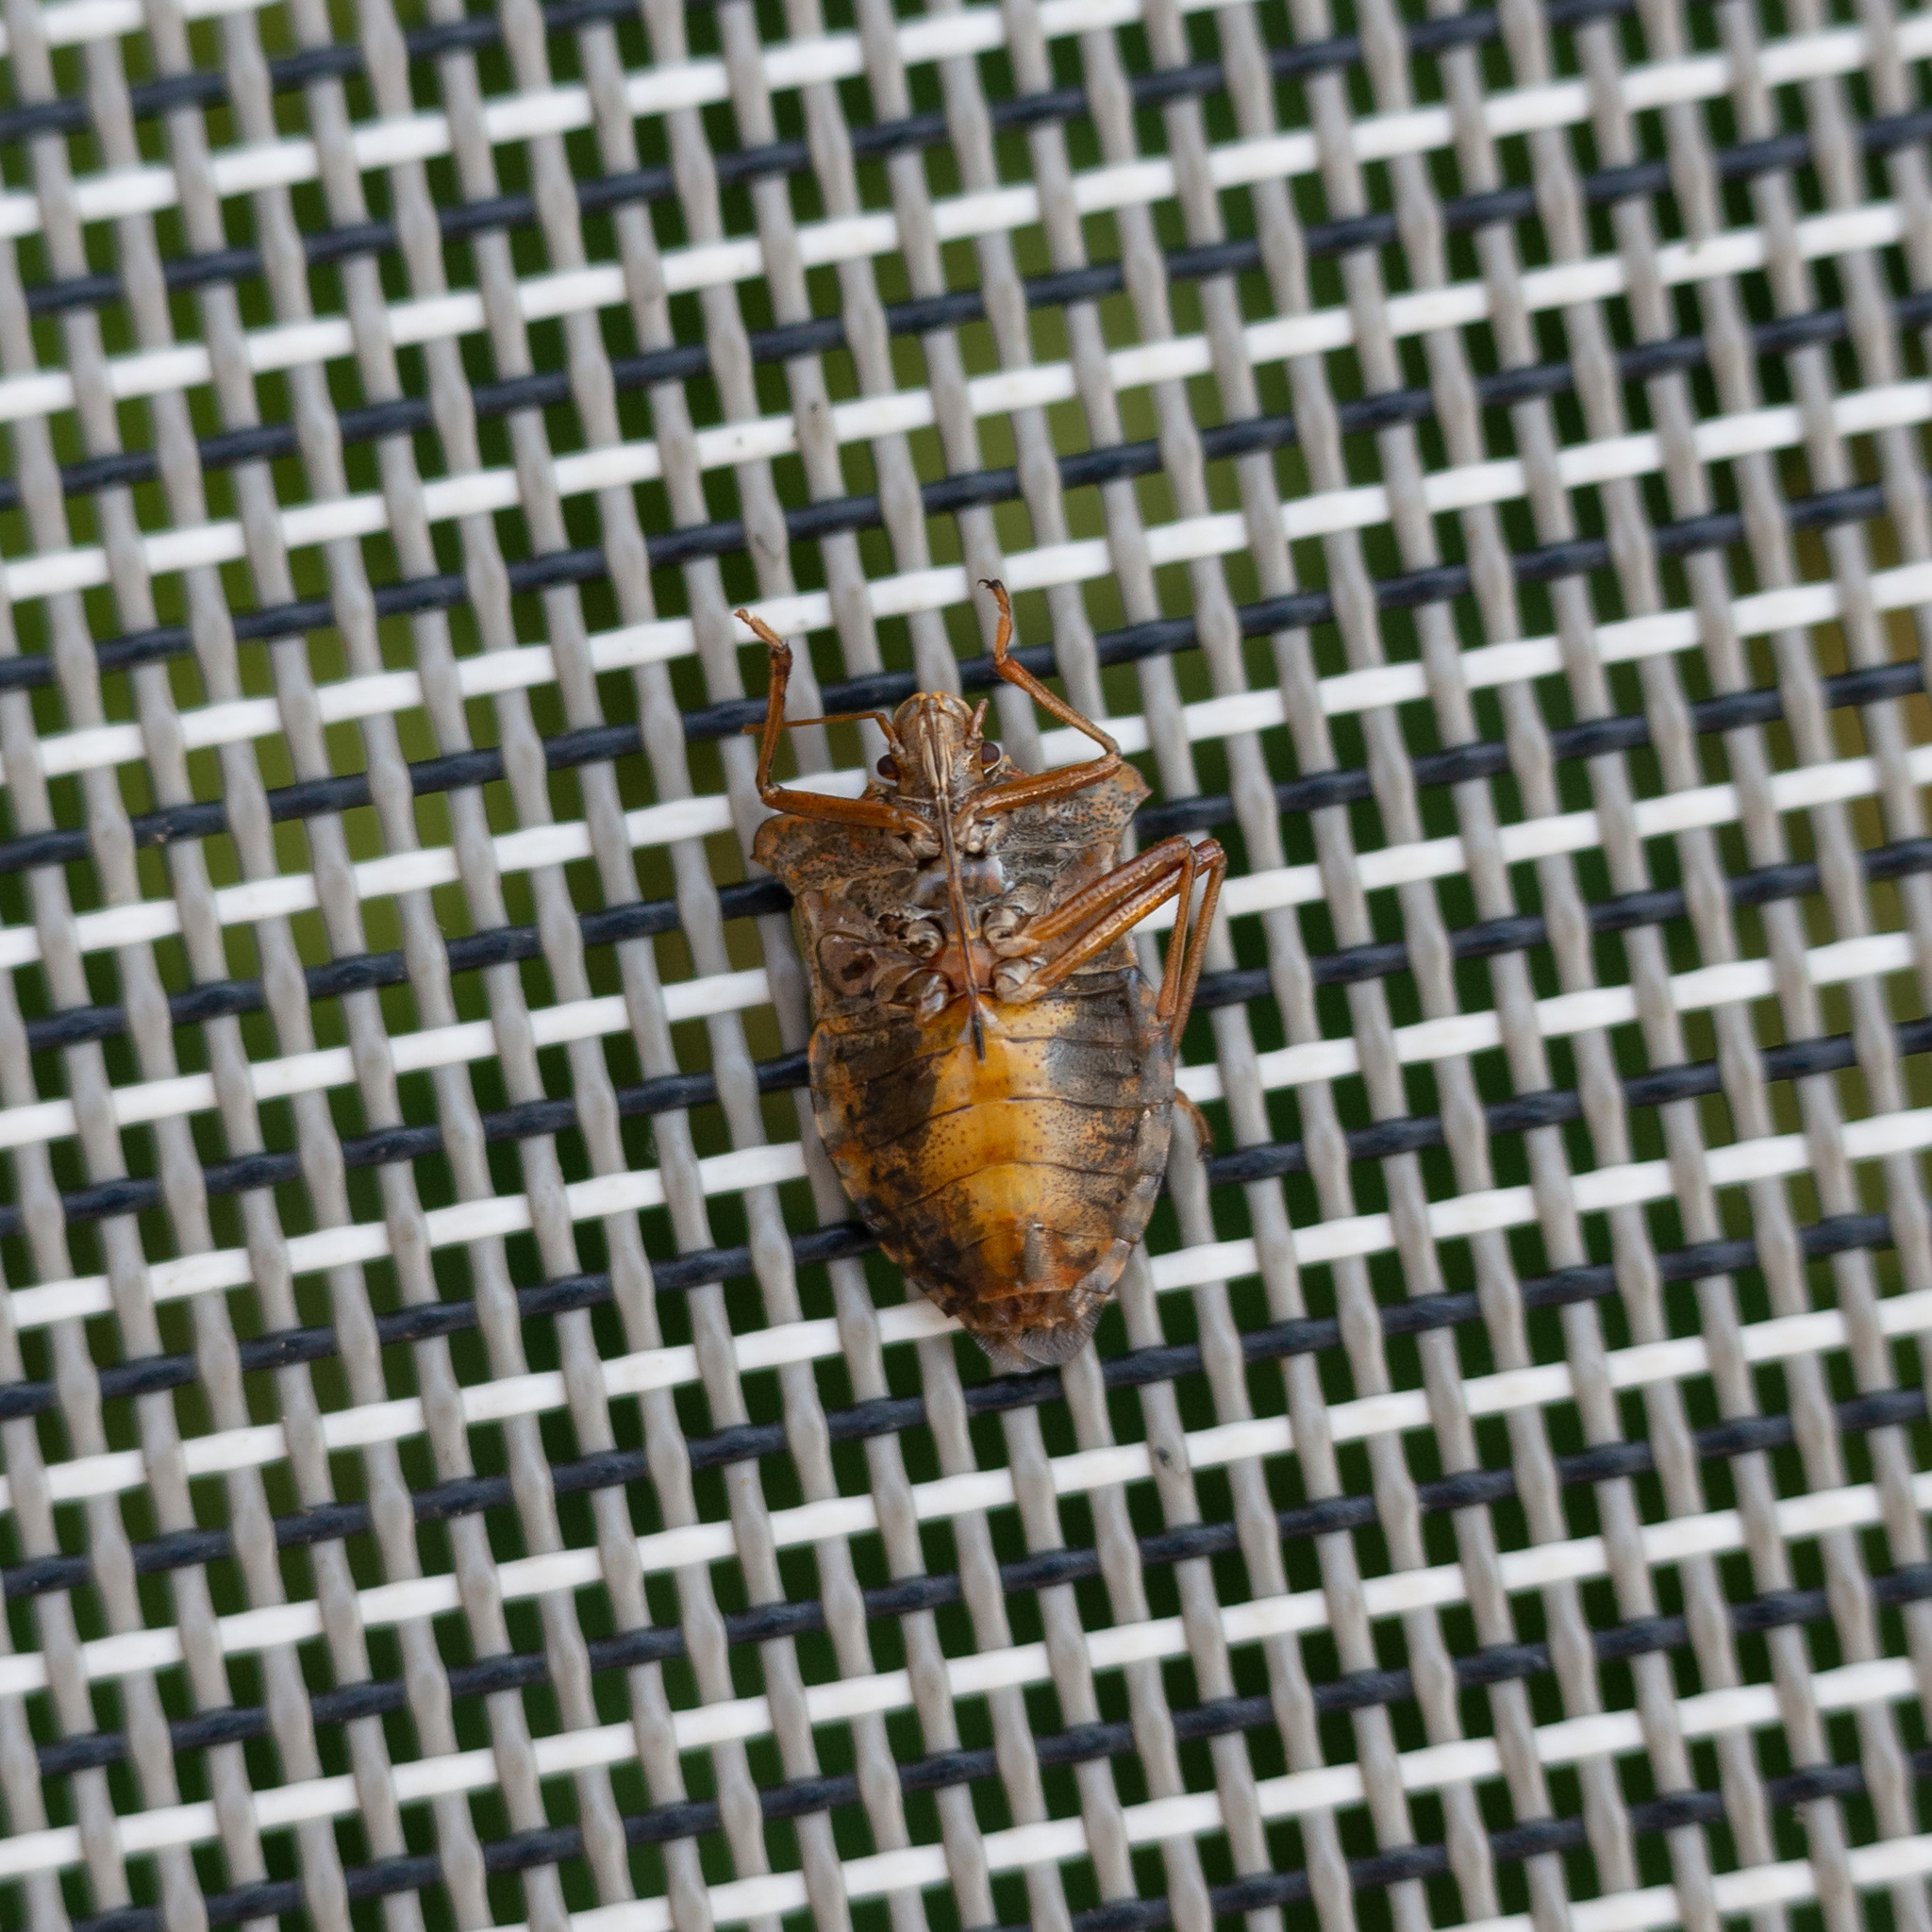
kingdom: Animalia
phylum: Arthropoda
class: Insecta
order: Hemiptera
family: Pentatomidae
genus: Pentatoma
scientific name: Pentatoma rufipes
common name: Forest bug
